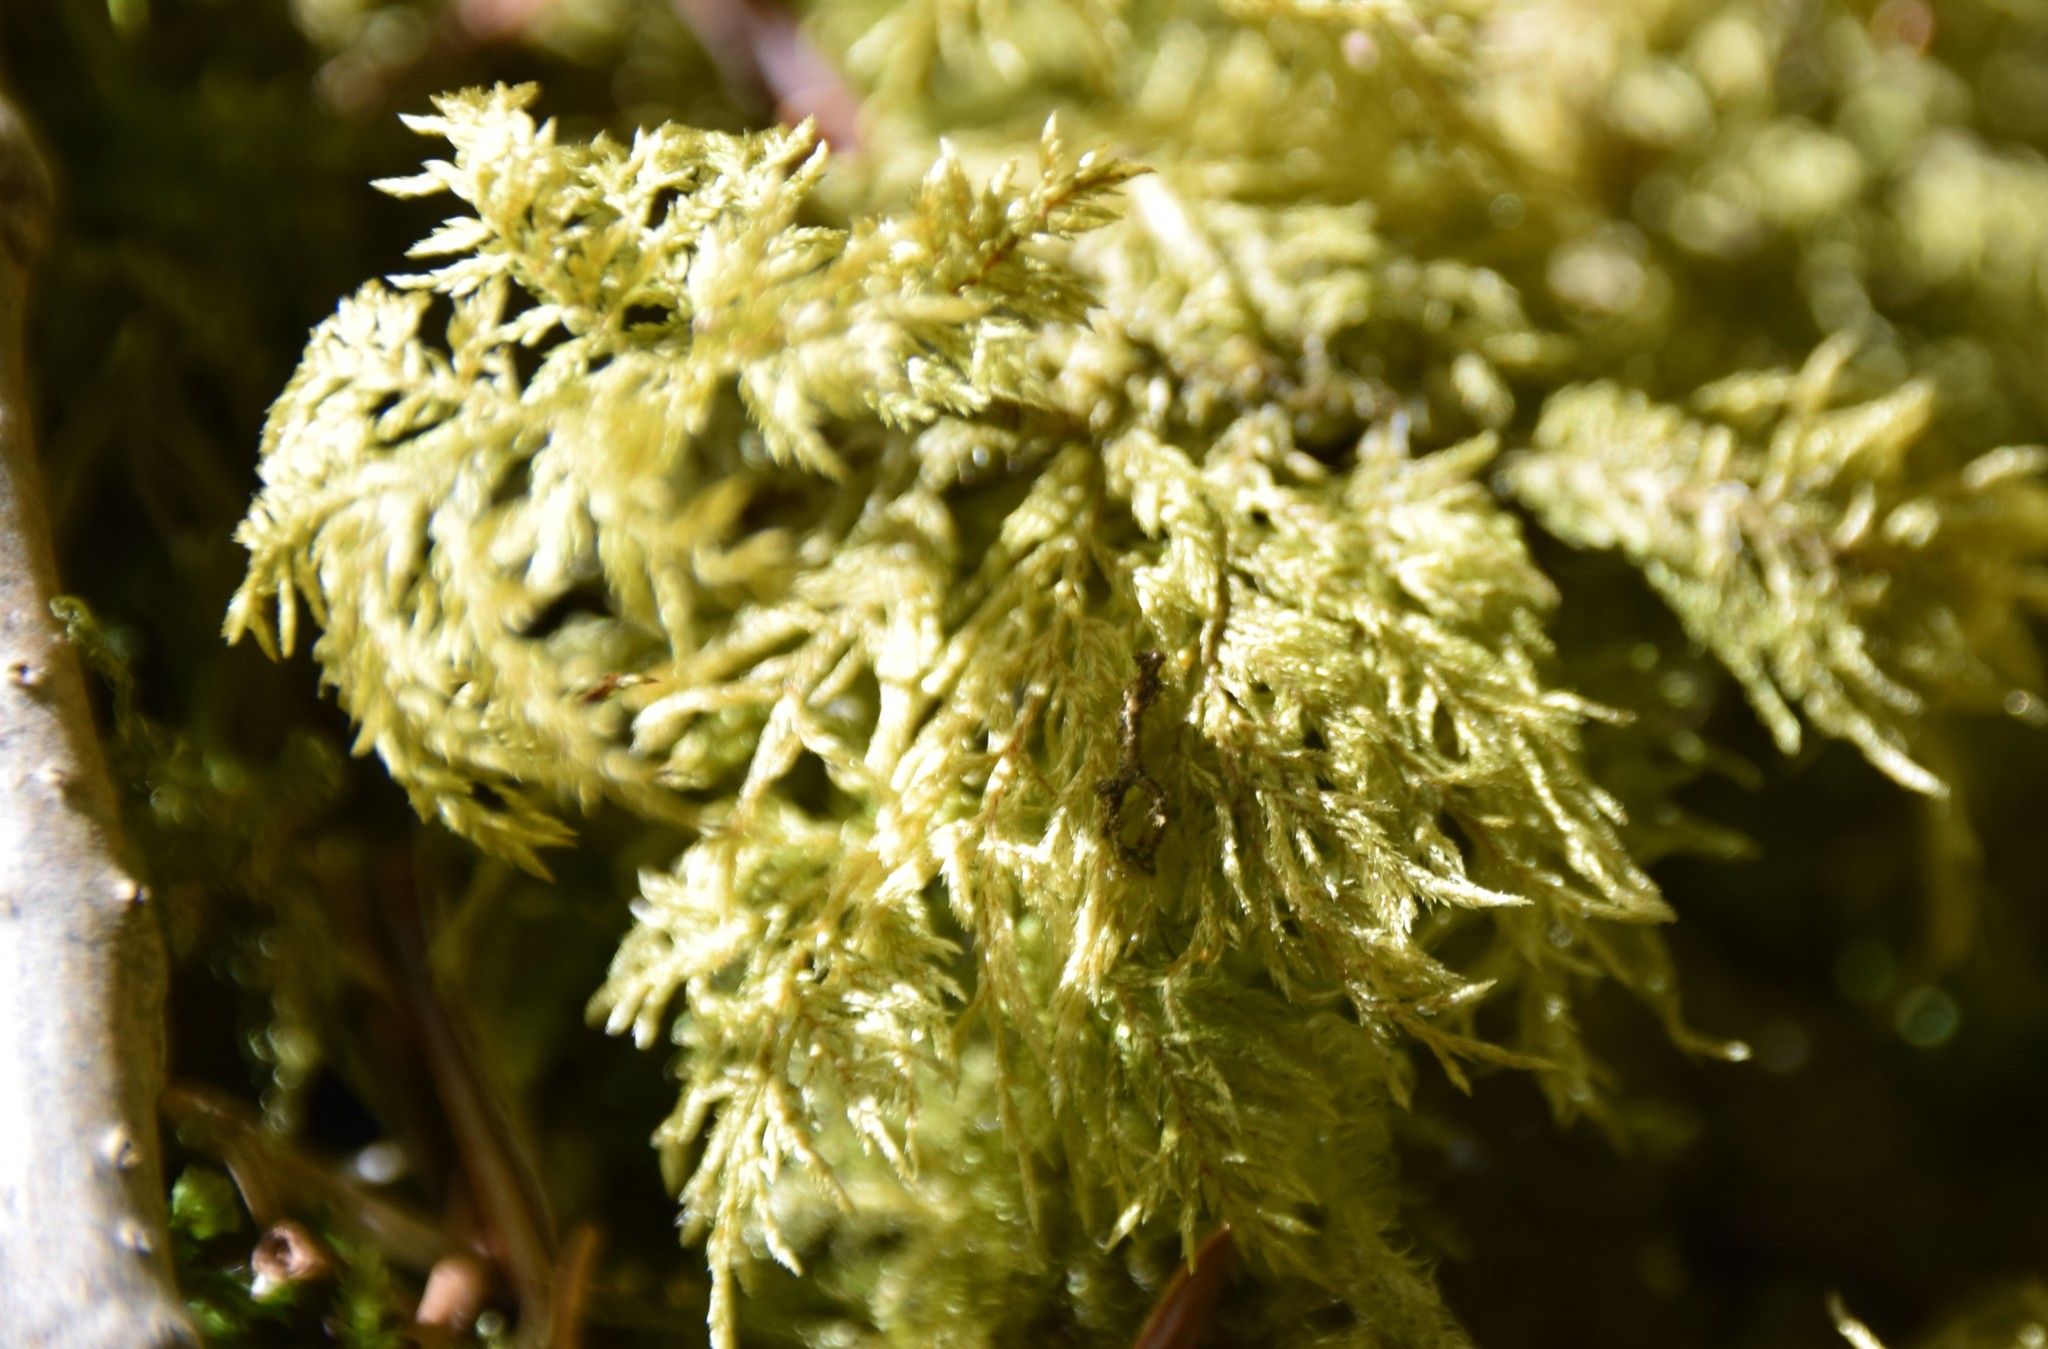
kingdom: Plantae
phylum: Bryophyta
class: Bryopsida
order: Hypnales
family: Hylocomiaceae
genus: Hylocomium
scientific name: Hylocomium splendens
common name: Stairstep moss
